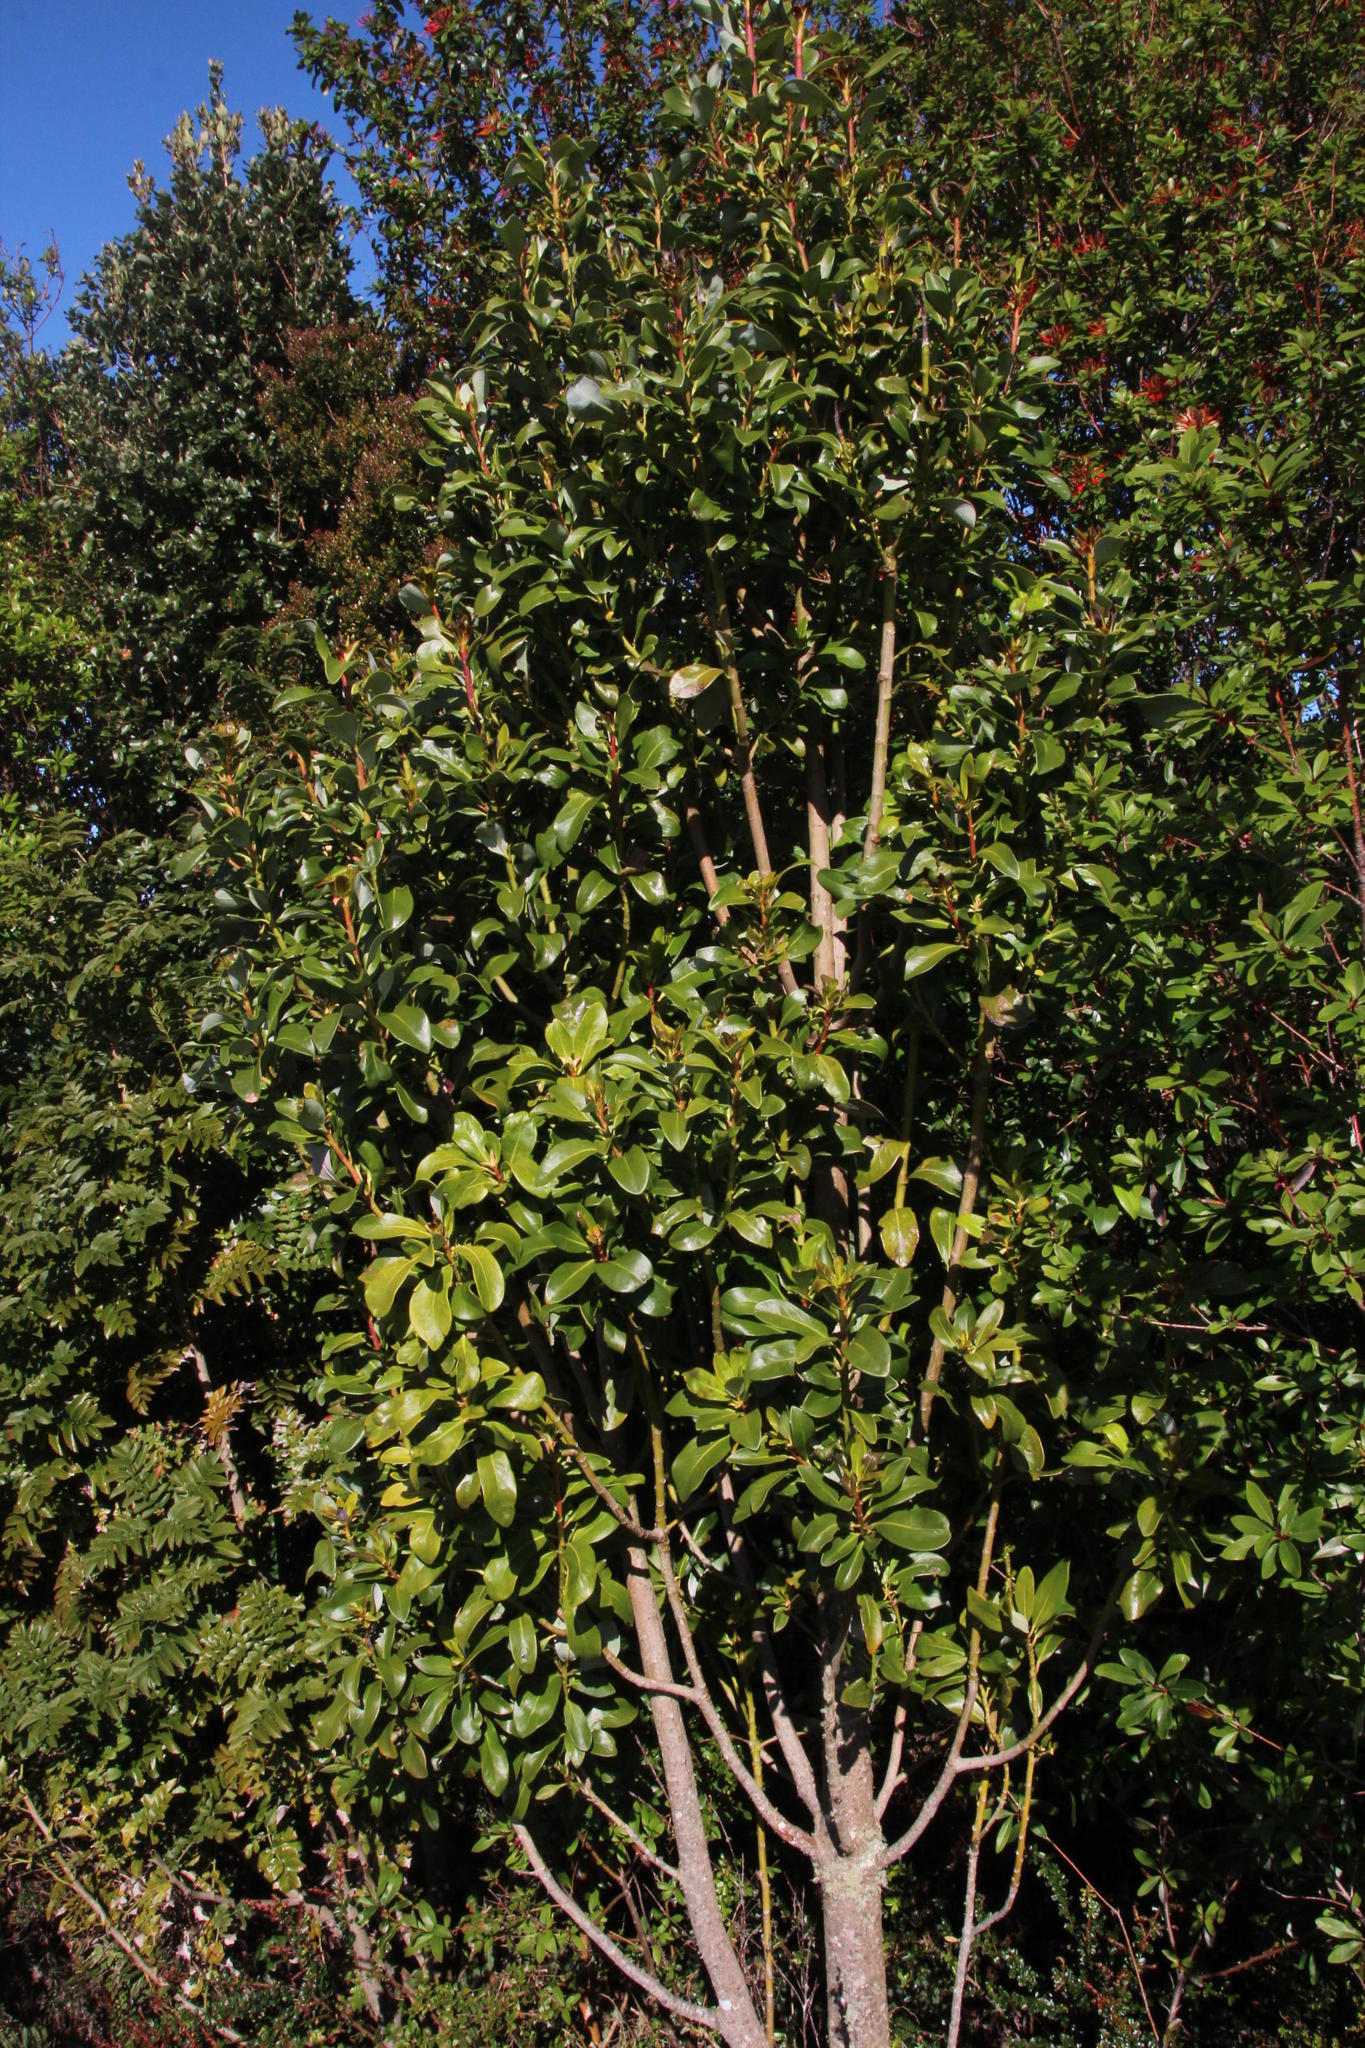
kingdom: Plantae
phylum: Tracheophyta
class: Magnoliopsida
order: Canellales
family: Winteraceae
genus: Drimys
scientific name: Drimys winteri
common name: Winter's-bark
